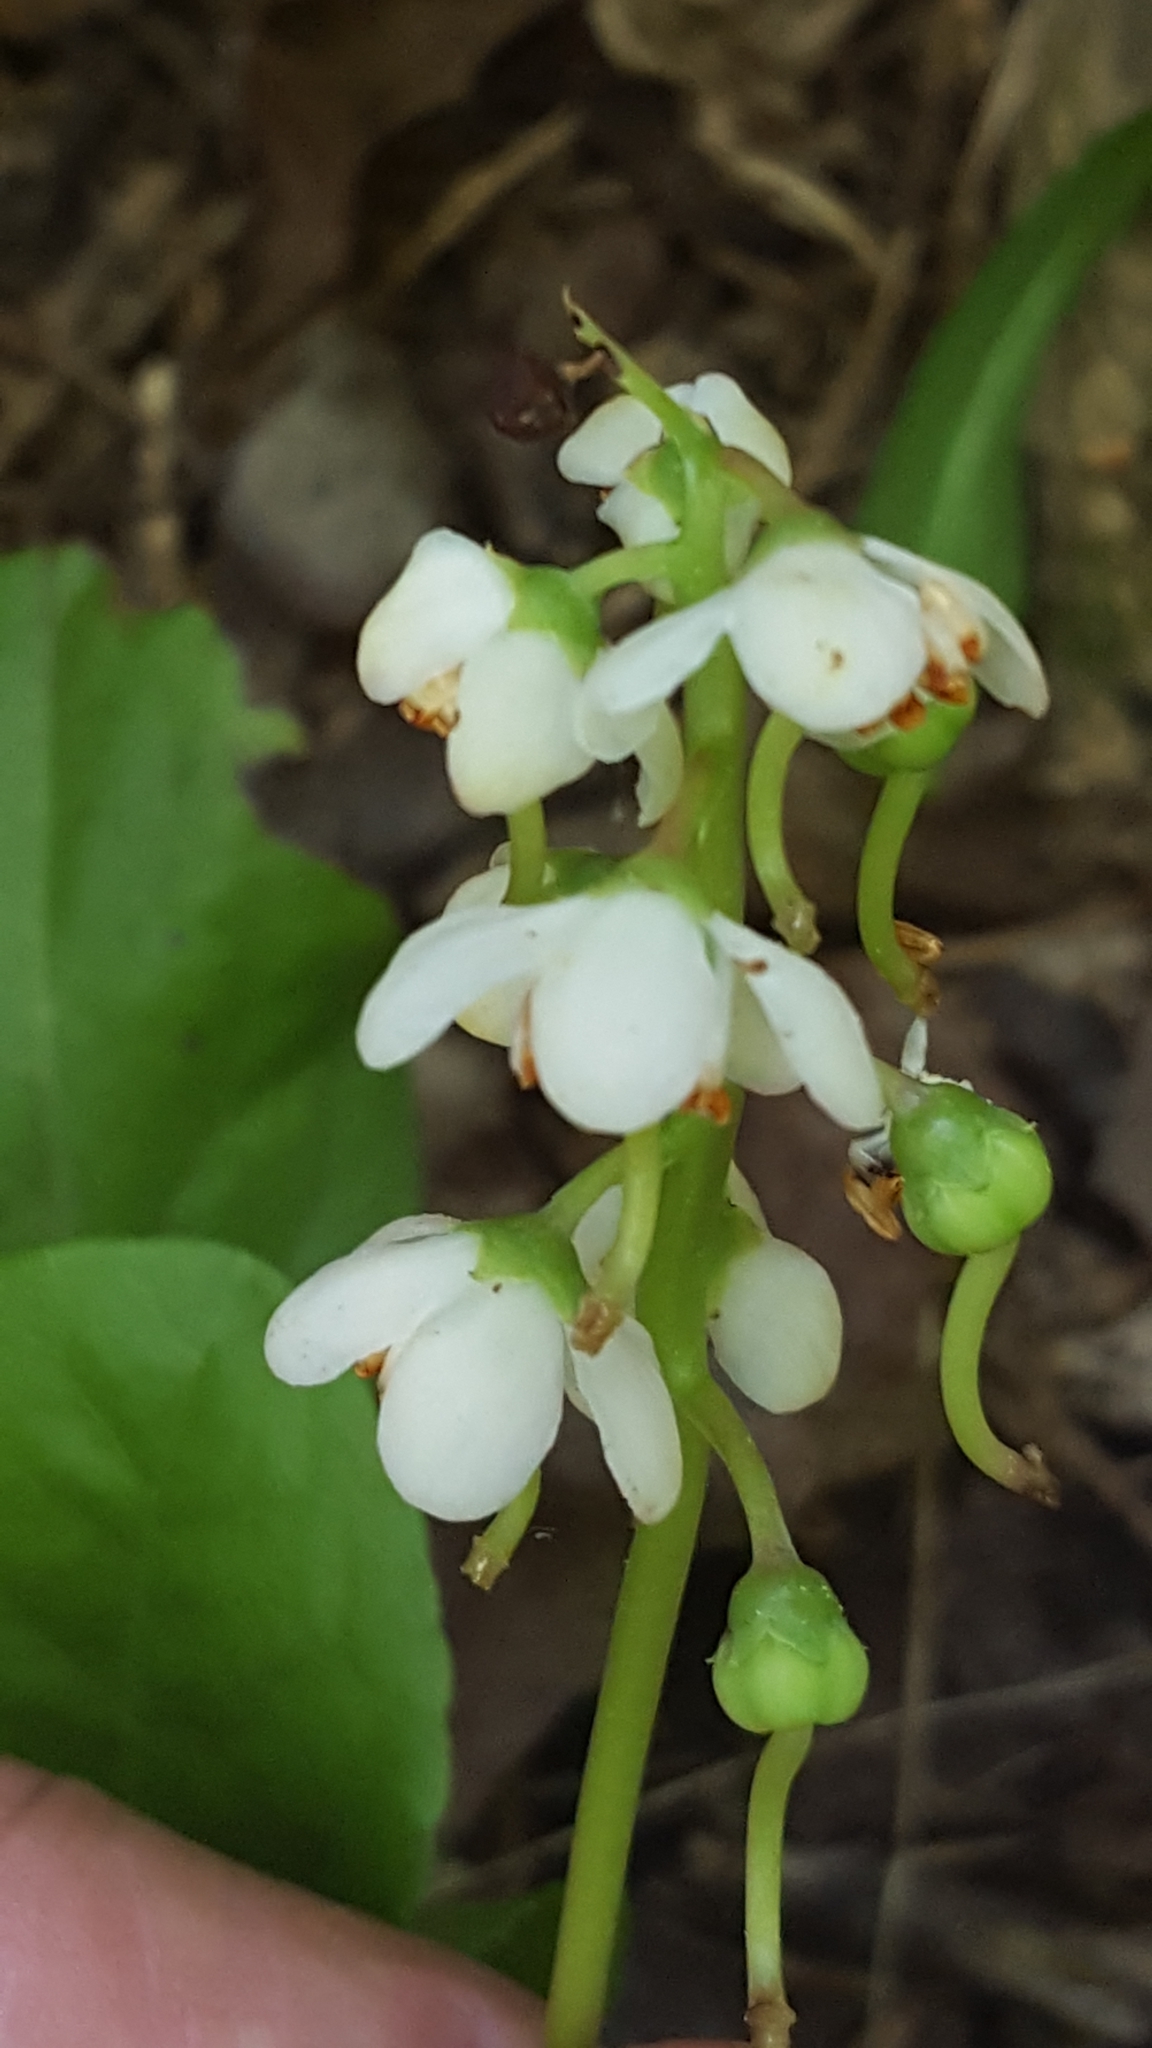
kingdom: Plantae
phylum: Tracheophyta
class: Magnoliopsida
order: Ericales
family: Ericaceae
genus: Pyrola
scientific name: Pyrola elliptica
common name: Shinleaf
